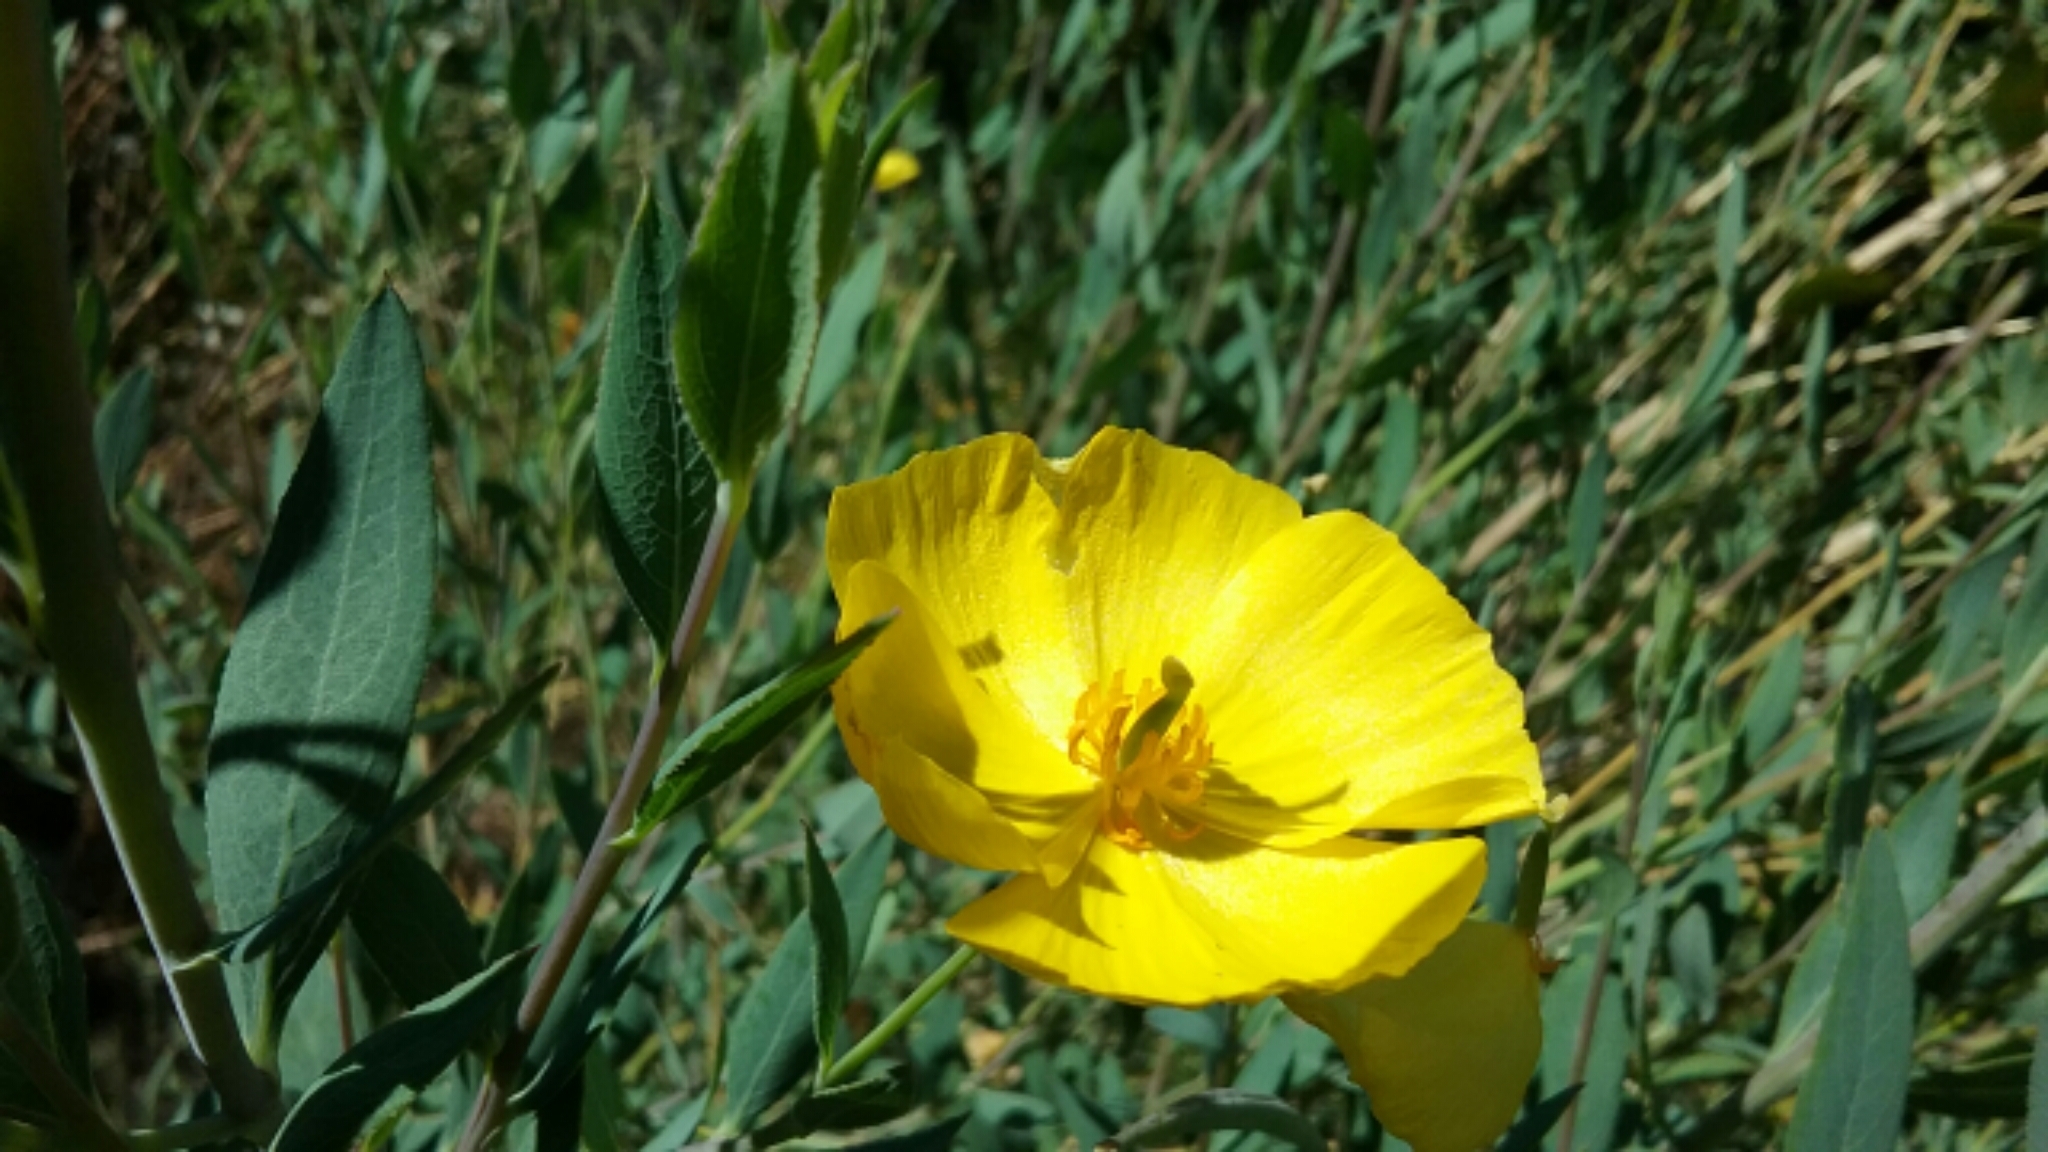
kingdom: Plantae
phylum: Tracheophyta
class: Magnoliopsida
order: Ranunculales
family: Papaveraceae
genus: Dendromecon
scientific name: Dendromecon rigida
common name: Tree poppy
